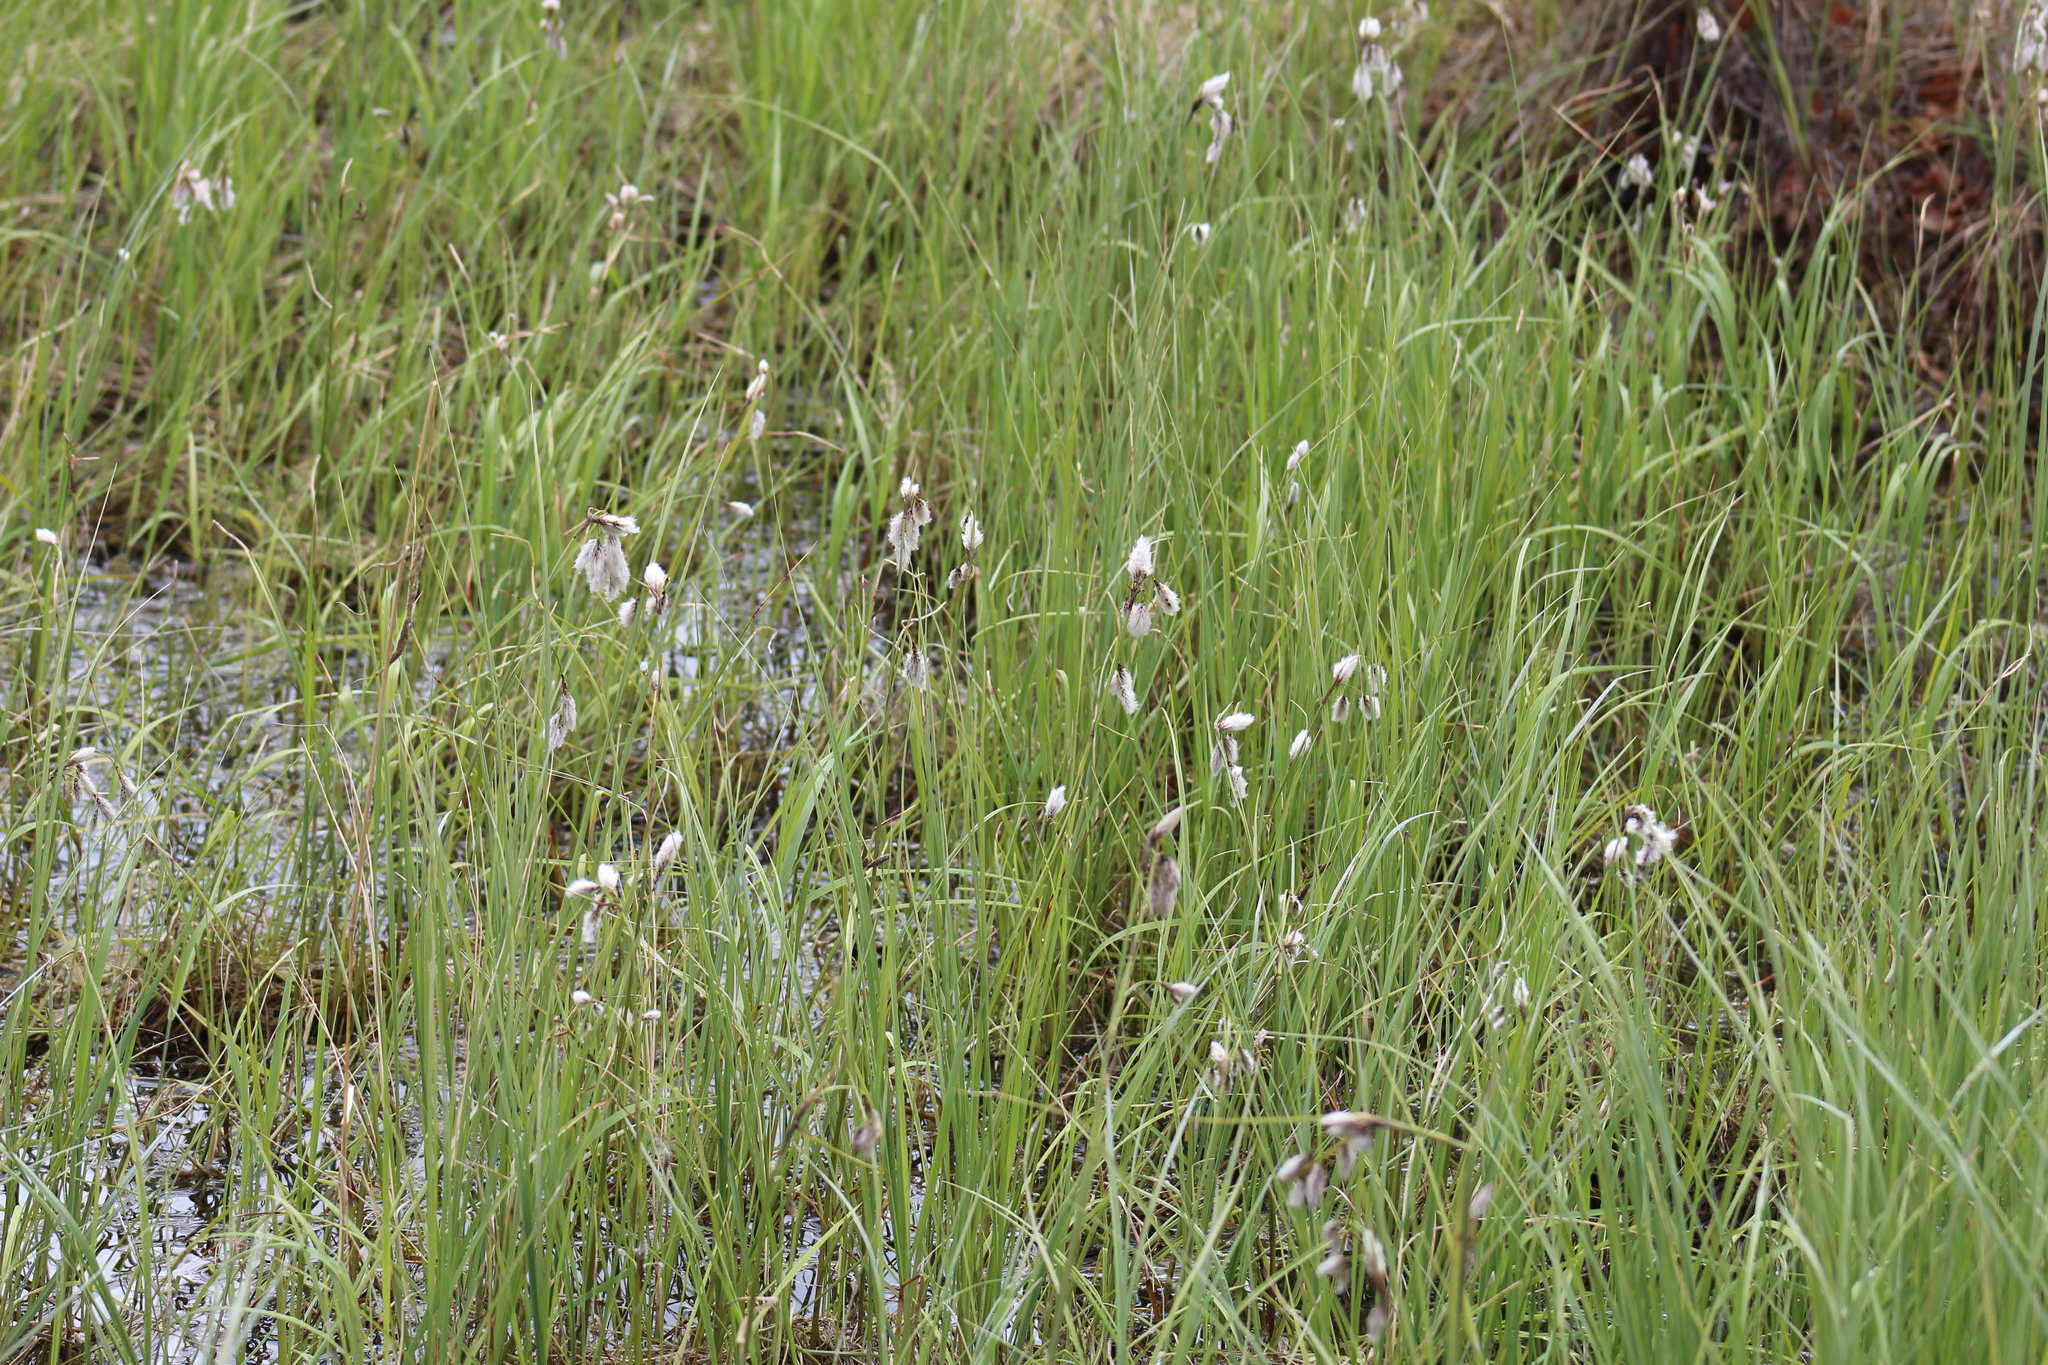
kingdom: Plantae
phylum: Tracheophyta
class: Liliopsida
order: Poales
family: Cyperaceae
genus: Eriophorum
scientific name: Eriophorum angustifolium
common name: Common cottongrass
